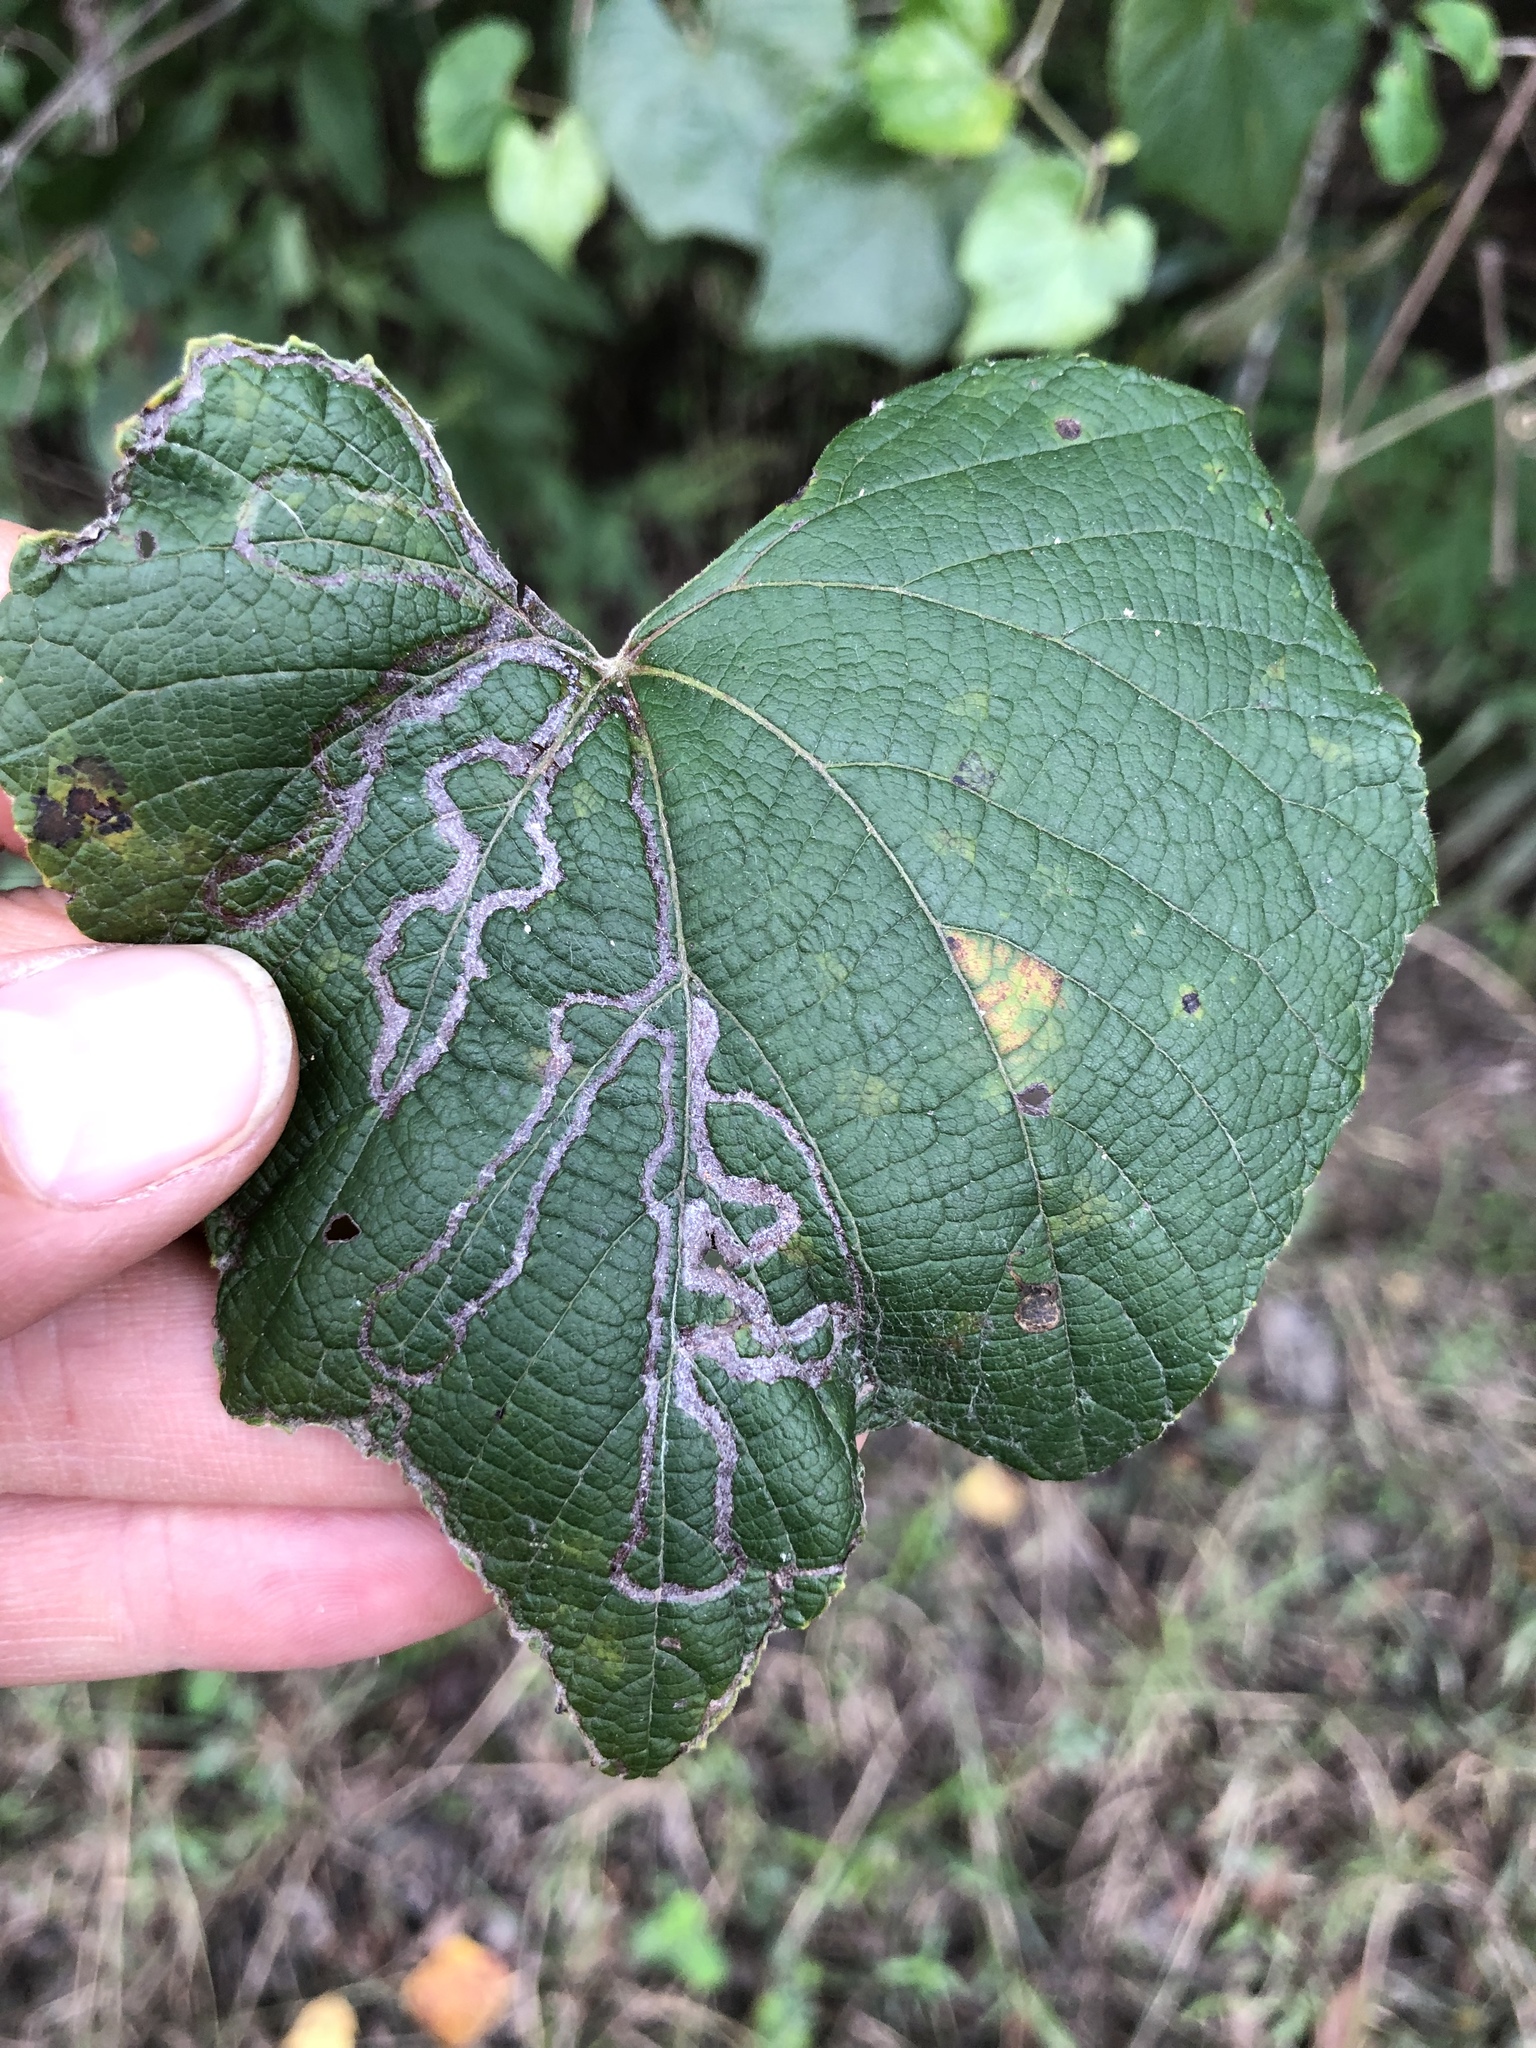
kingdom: Animalia
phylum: Arthropoda
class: Insecta
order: Lepidoptera
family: Gracillariidae
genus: Phyllocnistis
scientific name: Phyllocnistis vitegenella
